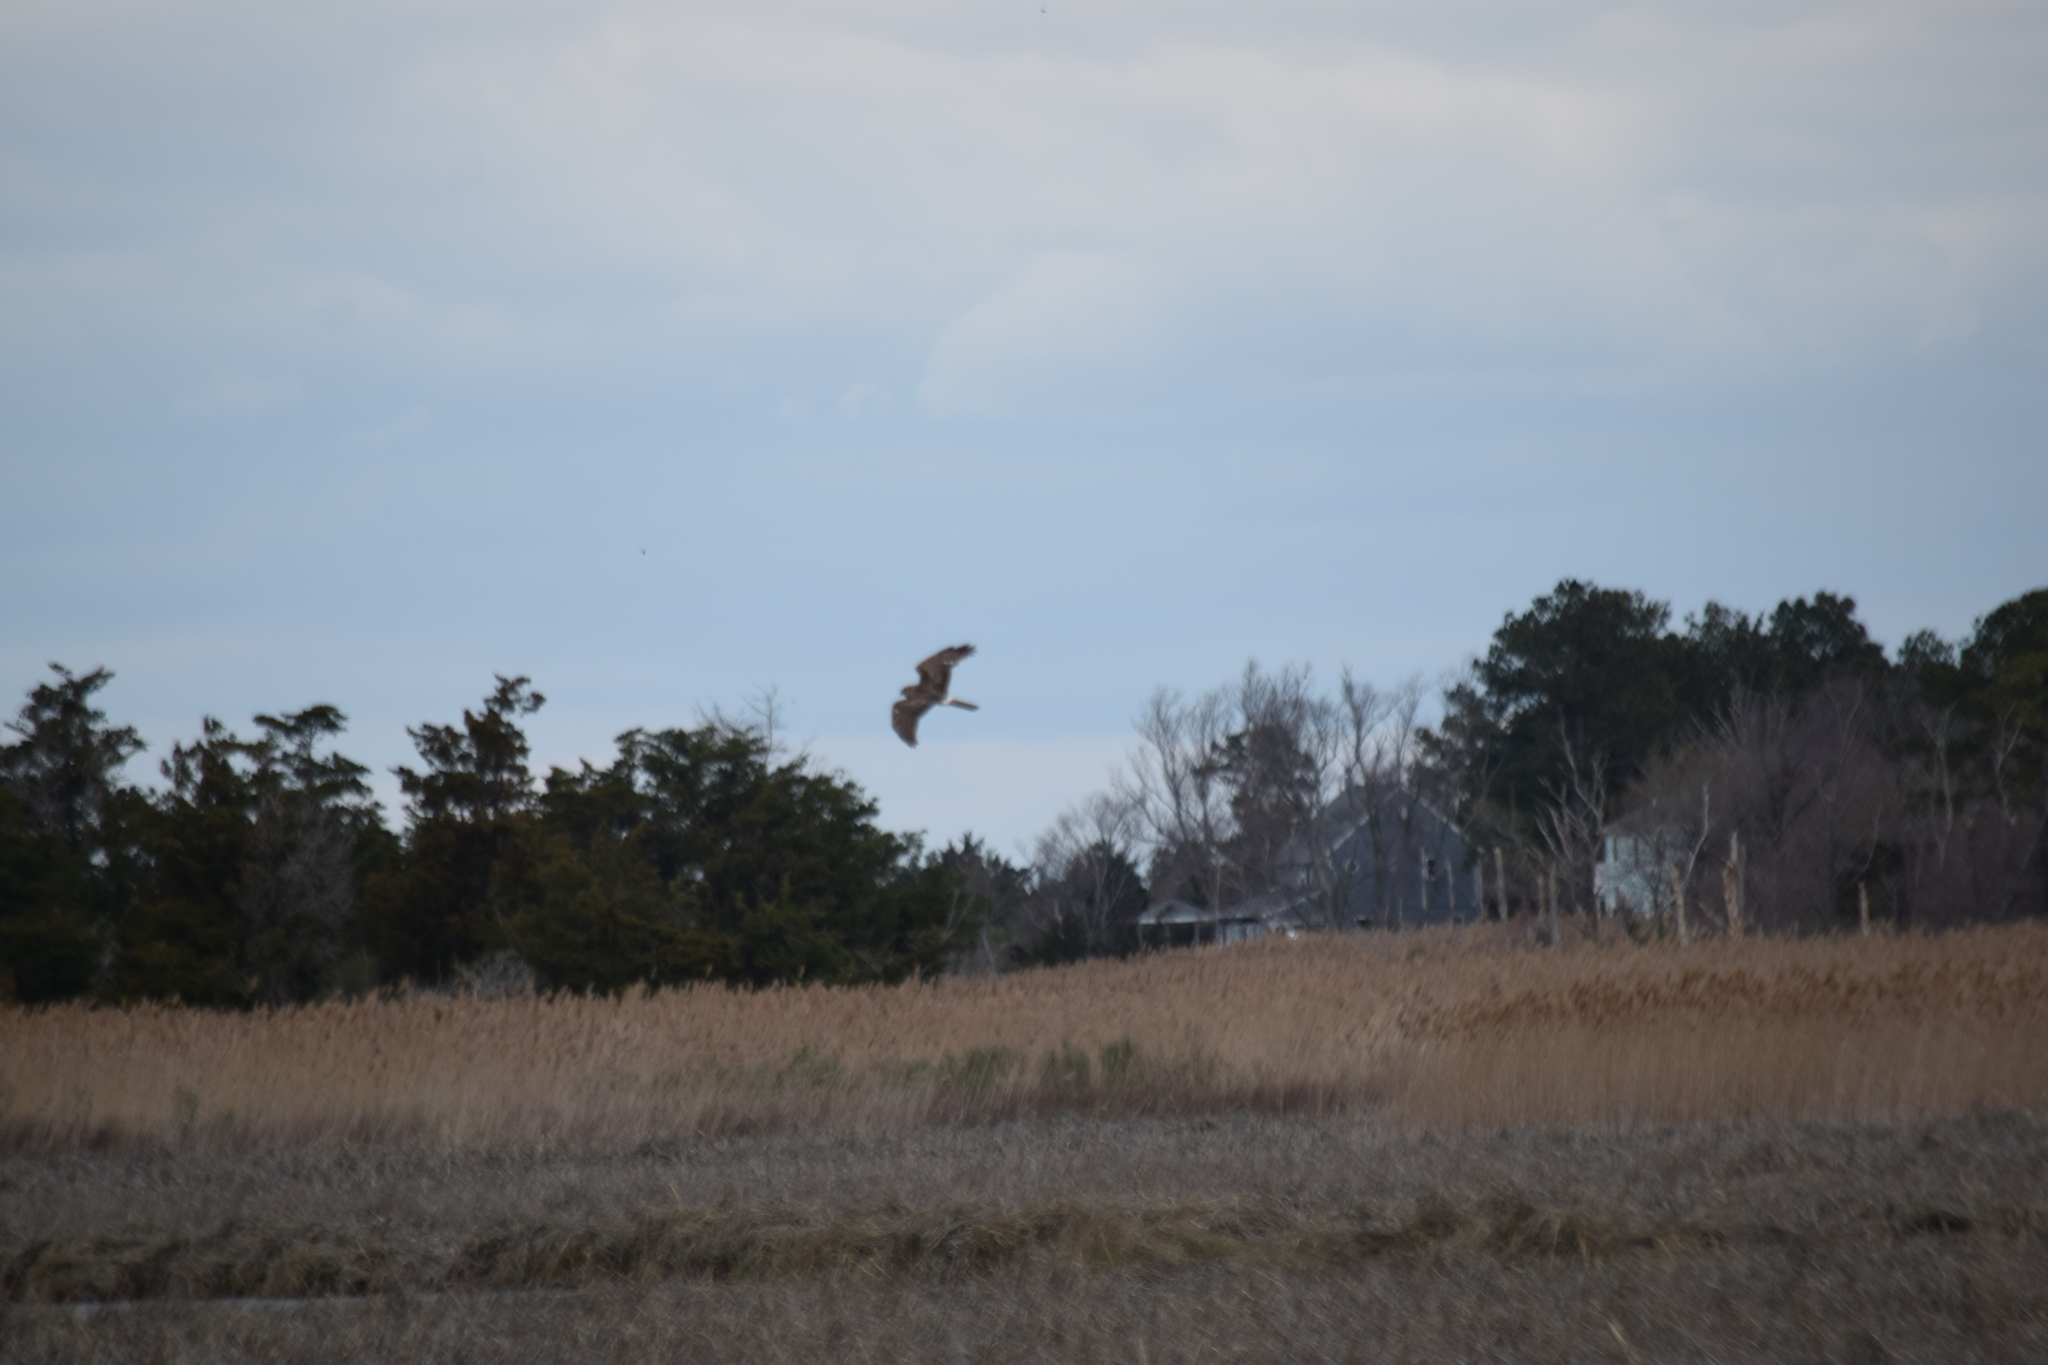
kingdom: Animalia
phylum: Chordata
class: Aves
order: Accipitriformes
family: Accipitridae
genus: Circus
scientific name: Circus cyaneus
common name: Hen harrier
